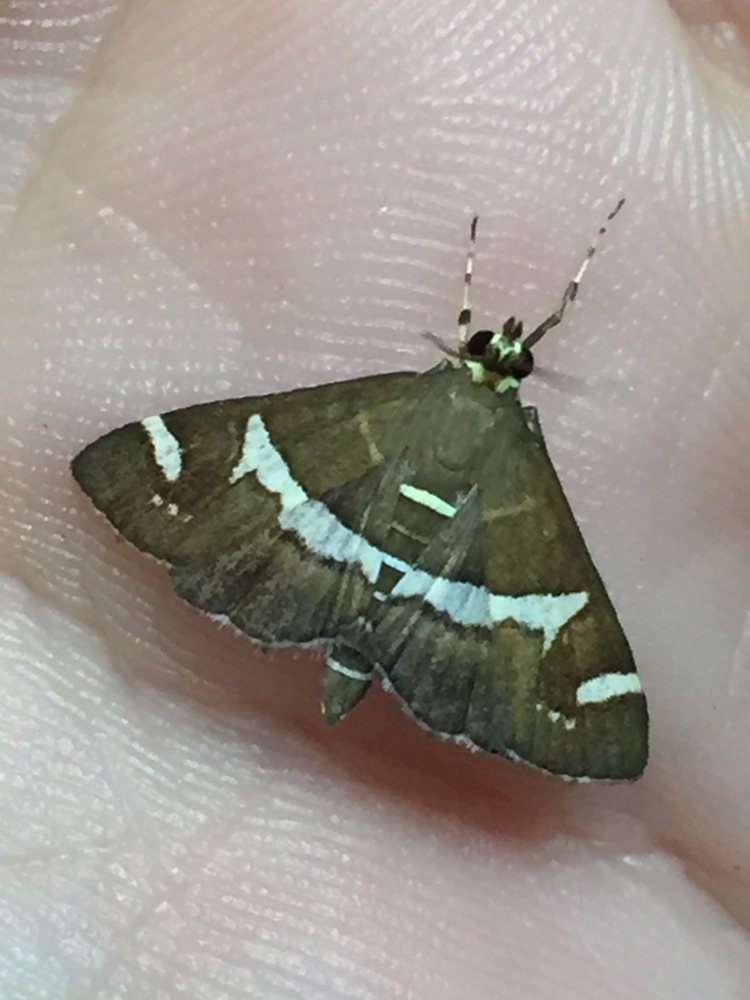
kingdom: Animalia
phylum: Arthropoda
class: Insecta
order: Lepidoptera
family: Crambidae
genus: Spoladea
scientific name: Spoladea recurvalis
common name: Beet webworm moth
